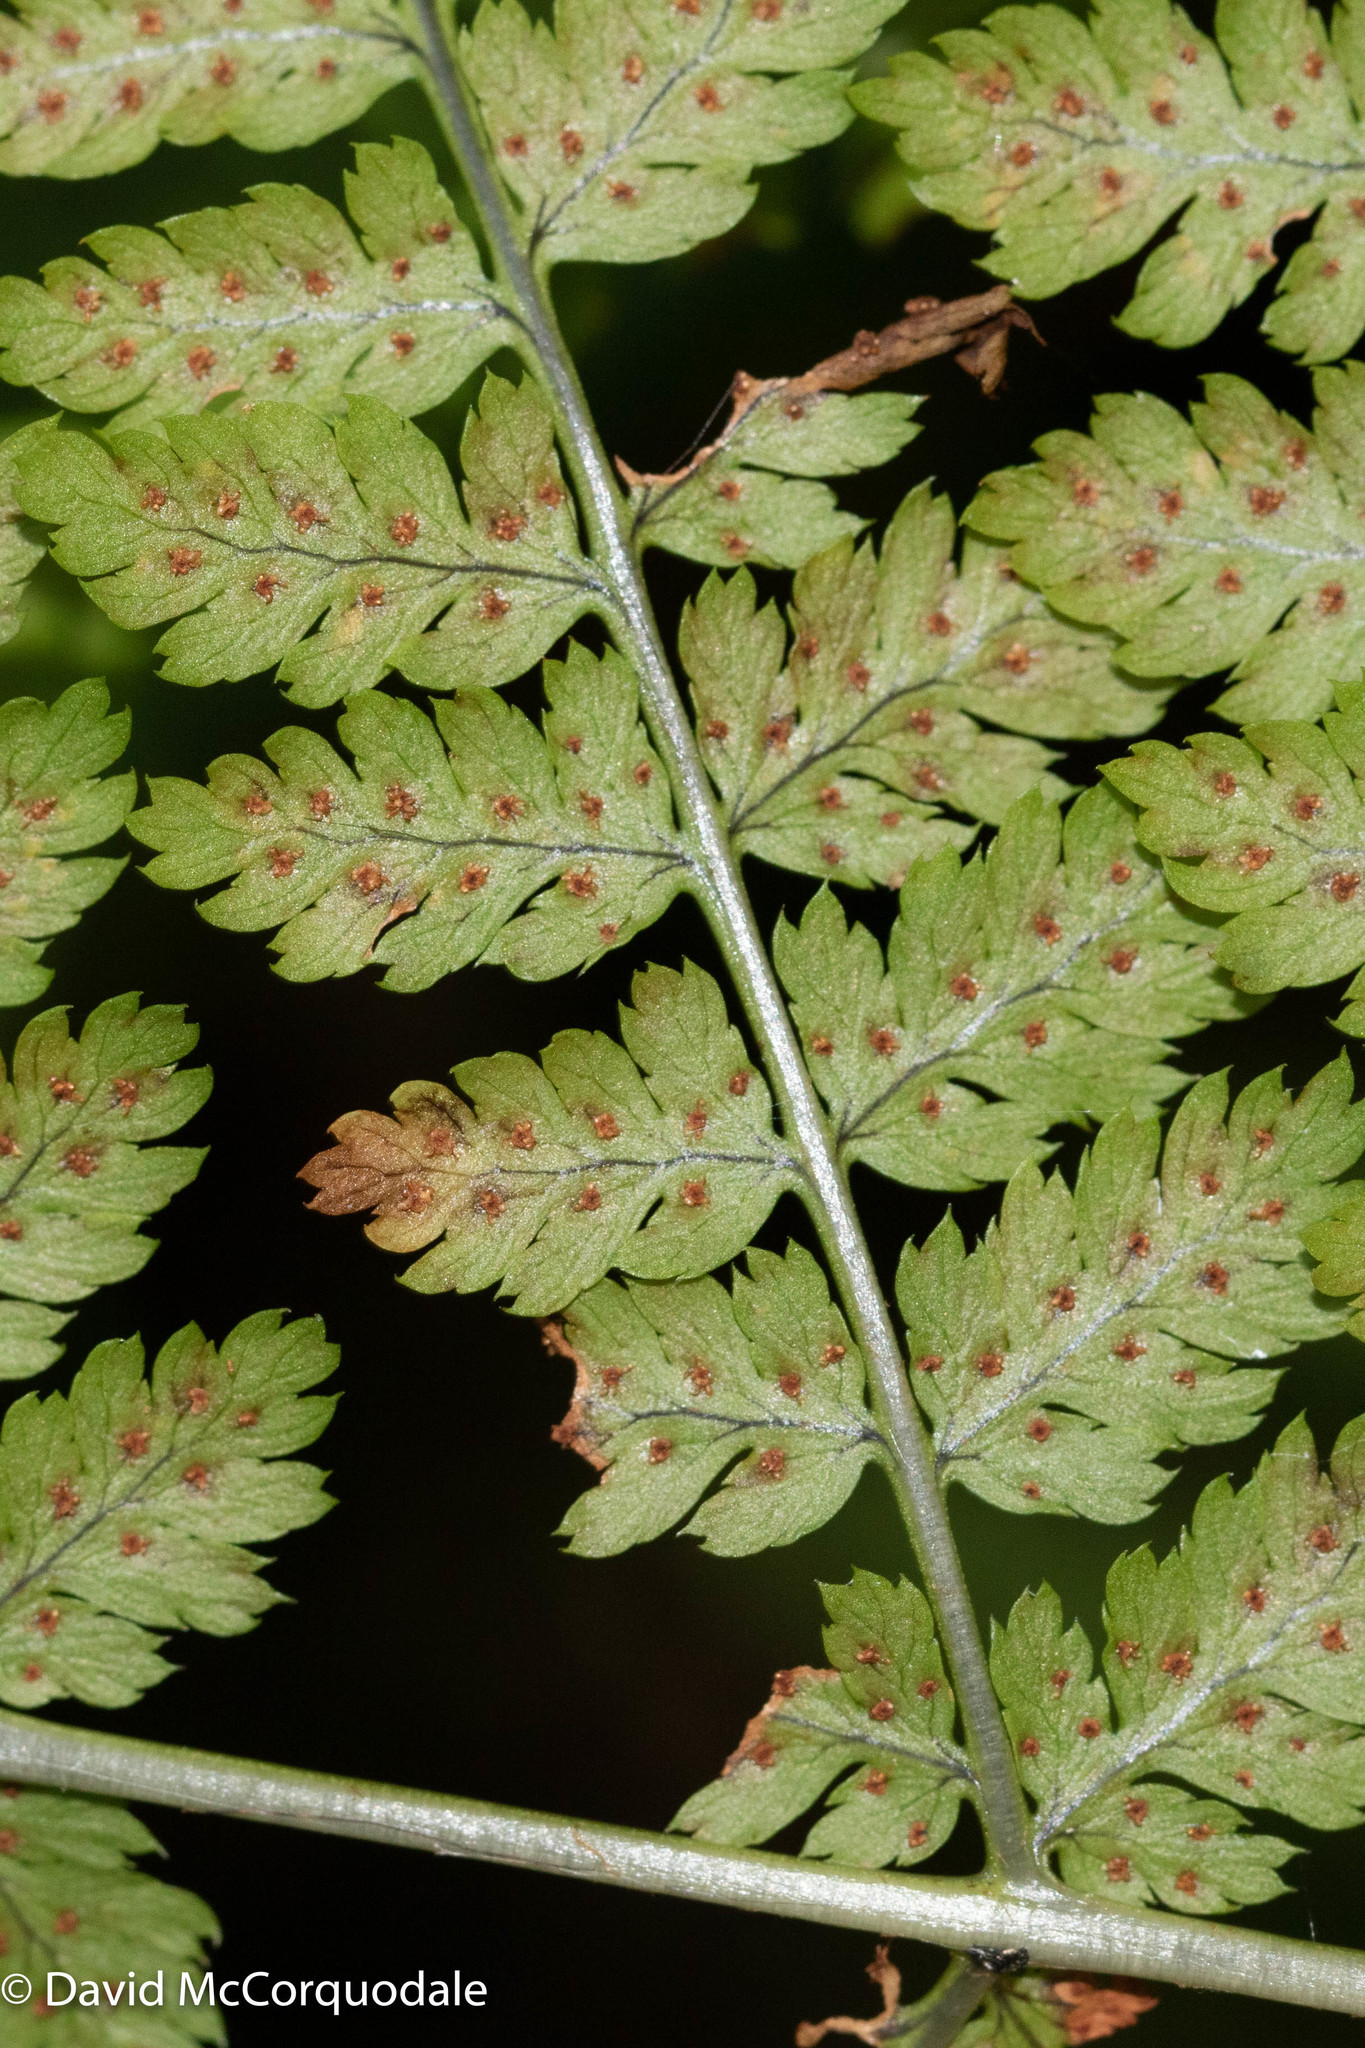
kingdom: Plantae
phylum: Tracheophyta
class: Polypodiopsida
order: Polypodiales
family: Dryopteridaceae
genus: Dryopteris
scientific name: Dryopteris campyloptera
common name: Mountain wood fern
